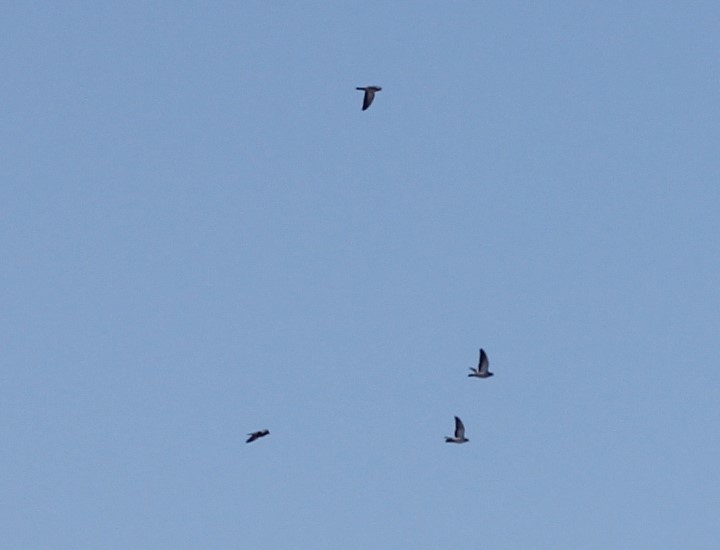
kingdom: Animalia
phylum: Chordata
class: Aves
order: Columbiformes
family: Columbidae
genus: Columba
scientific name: Columba oenas
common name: Stock dove
